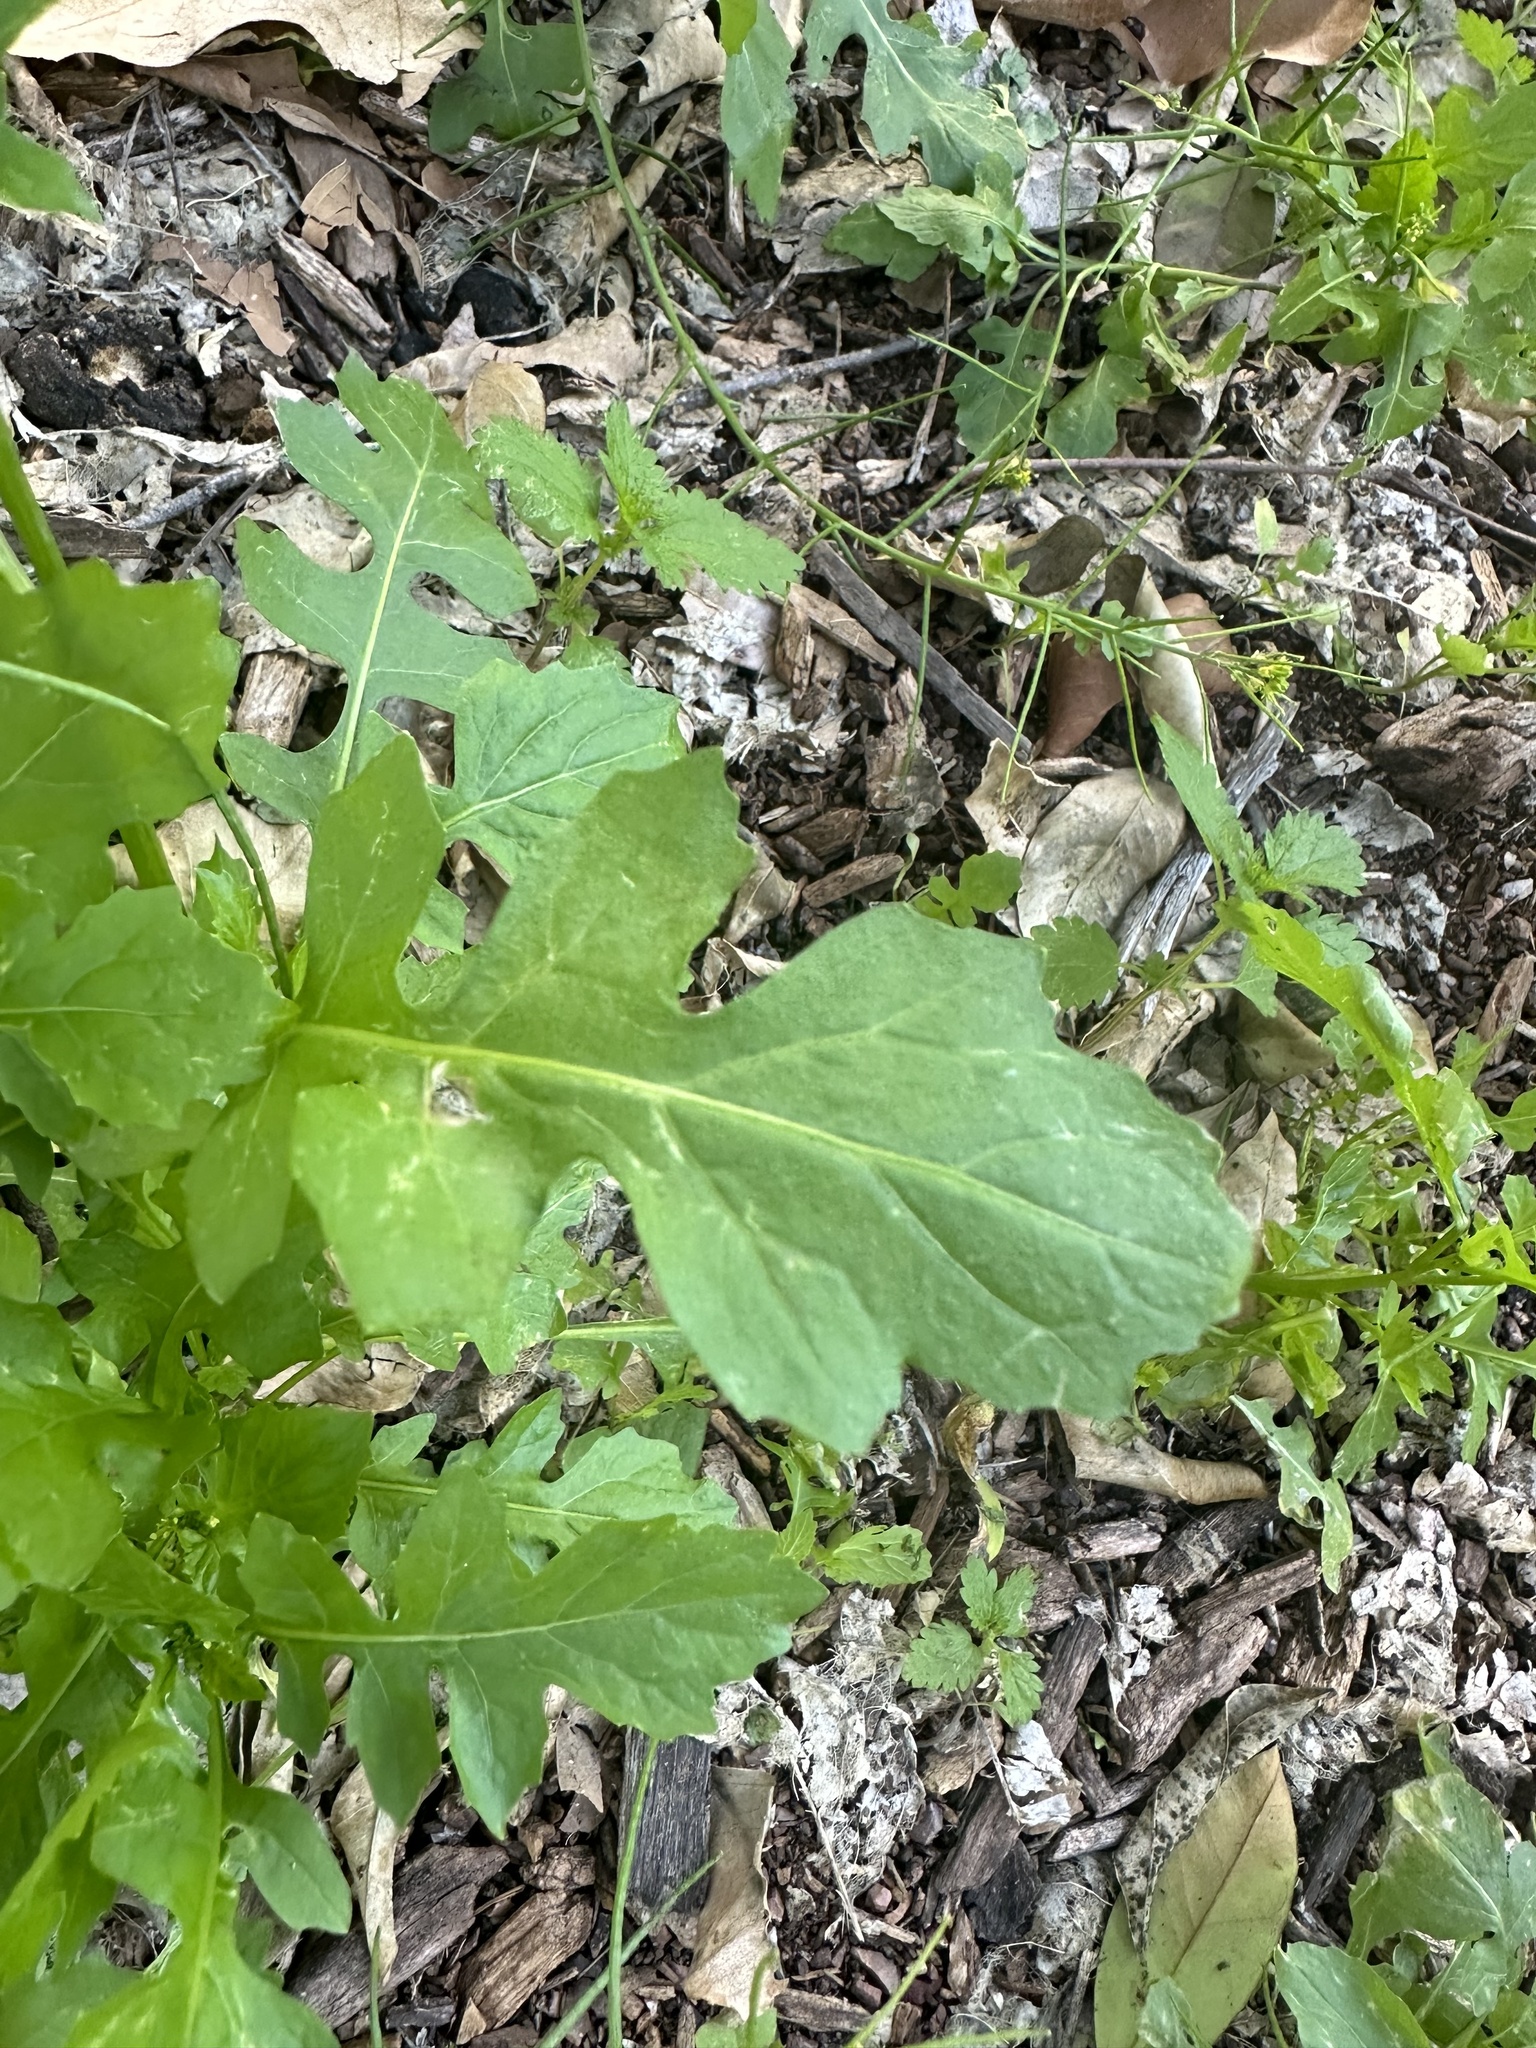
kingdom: Plantae
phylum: Tracheophyta
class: Magnoliopsida
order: Brassicales
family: Brassicaceae
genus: Sisymbrium
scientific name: Sisymbrium erysimoides
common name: French rocket
